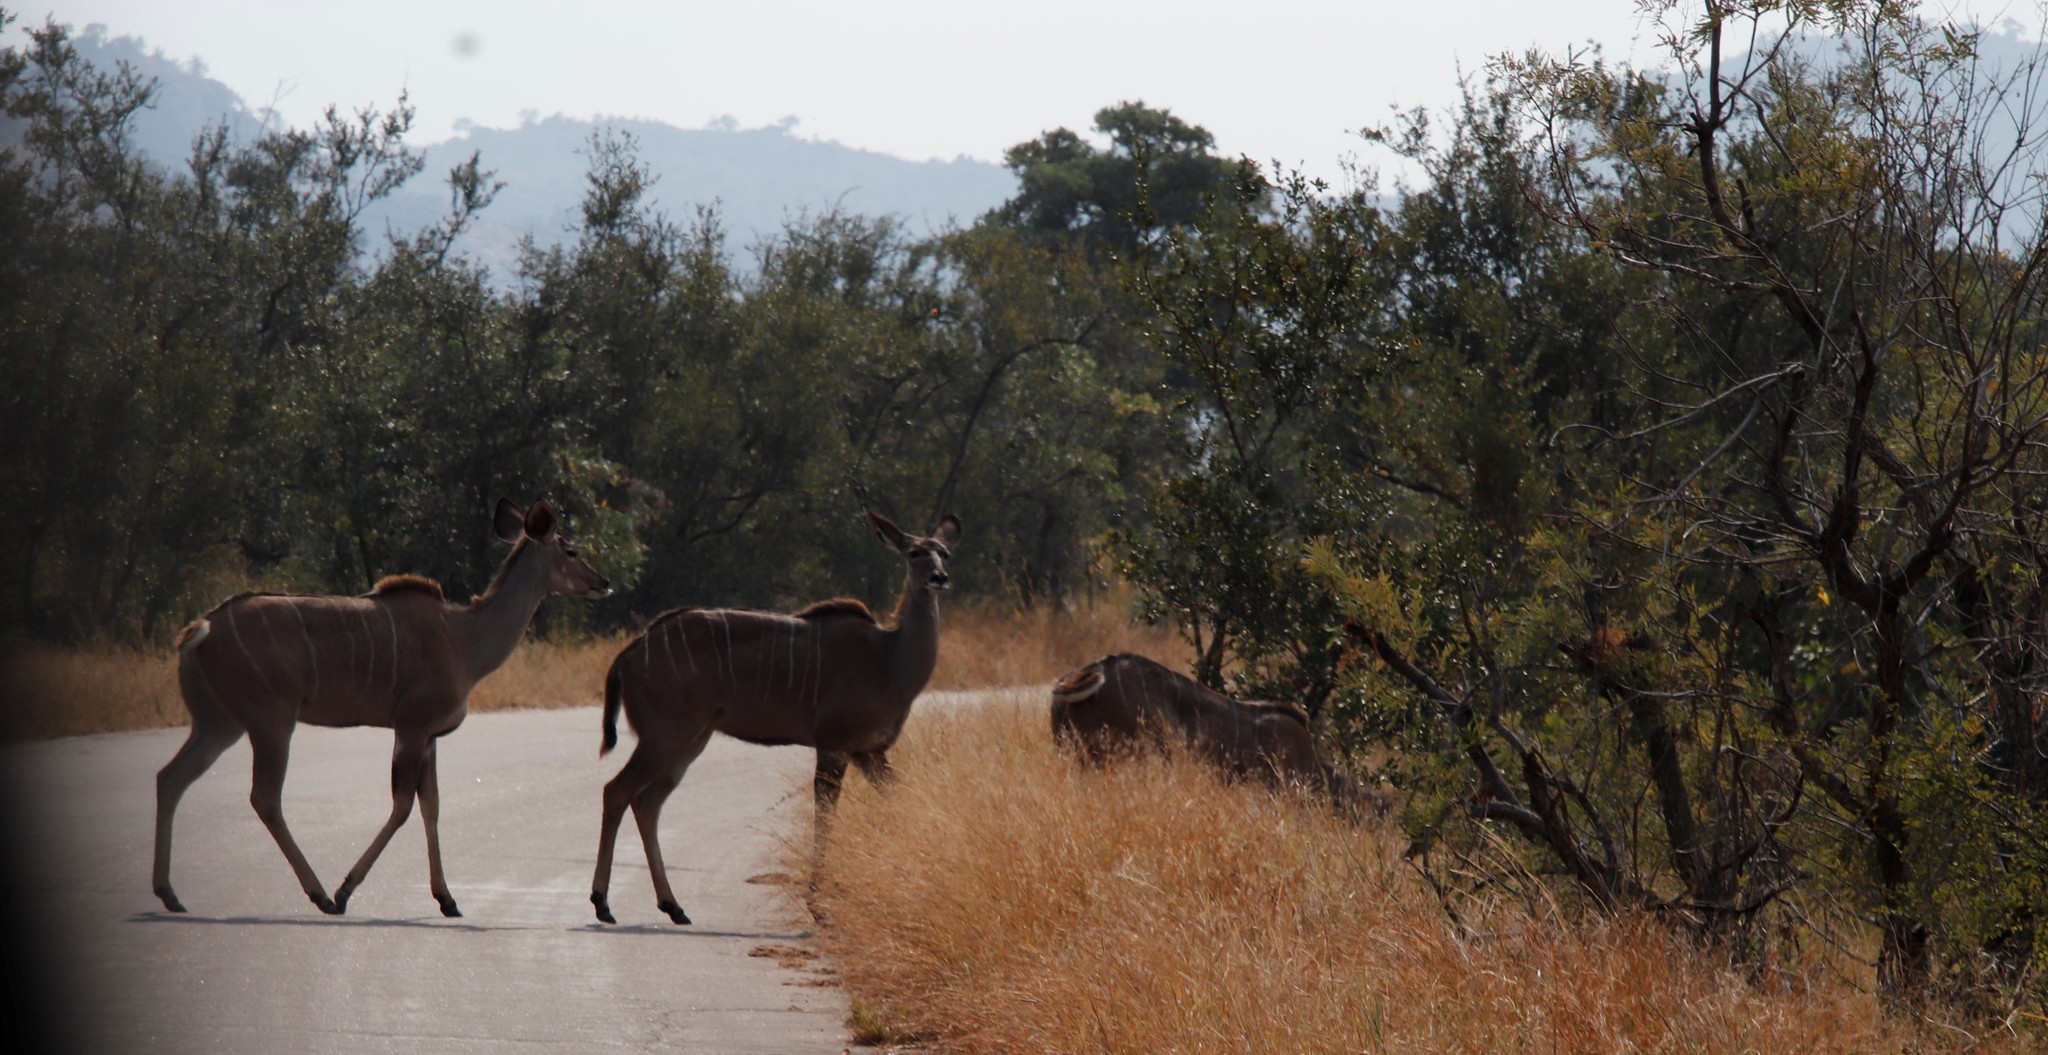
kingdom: Animalia
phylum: Chordata
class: Mammalia
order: Artiodactyla
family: Bovidae
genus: Tragelaphus
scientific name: Tragelaphus strepsiceros
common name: Greater kudu
